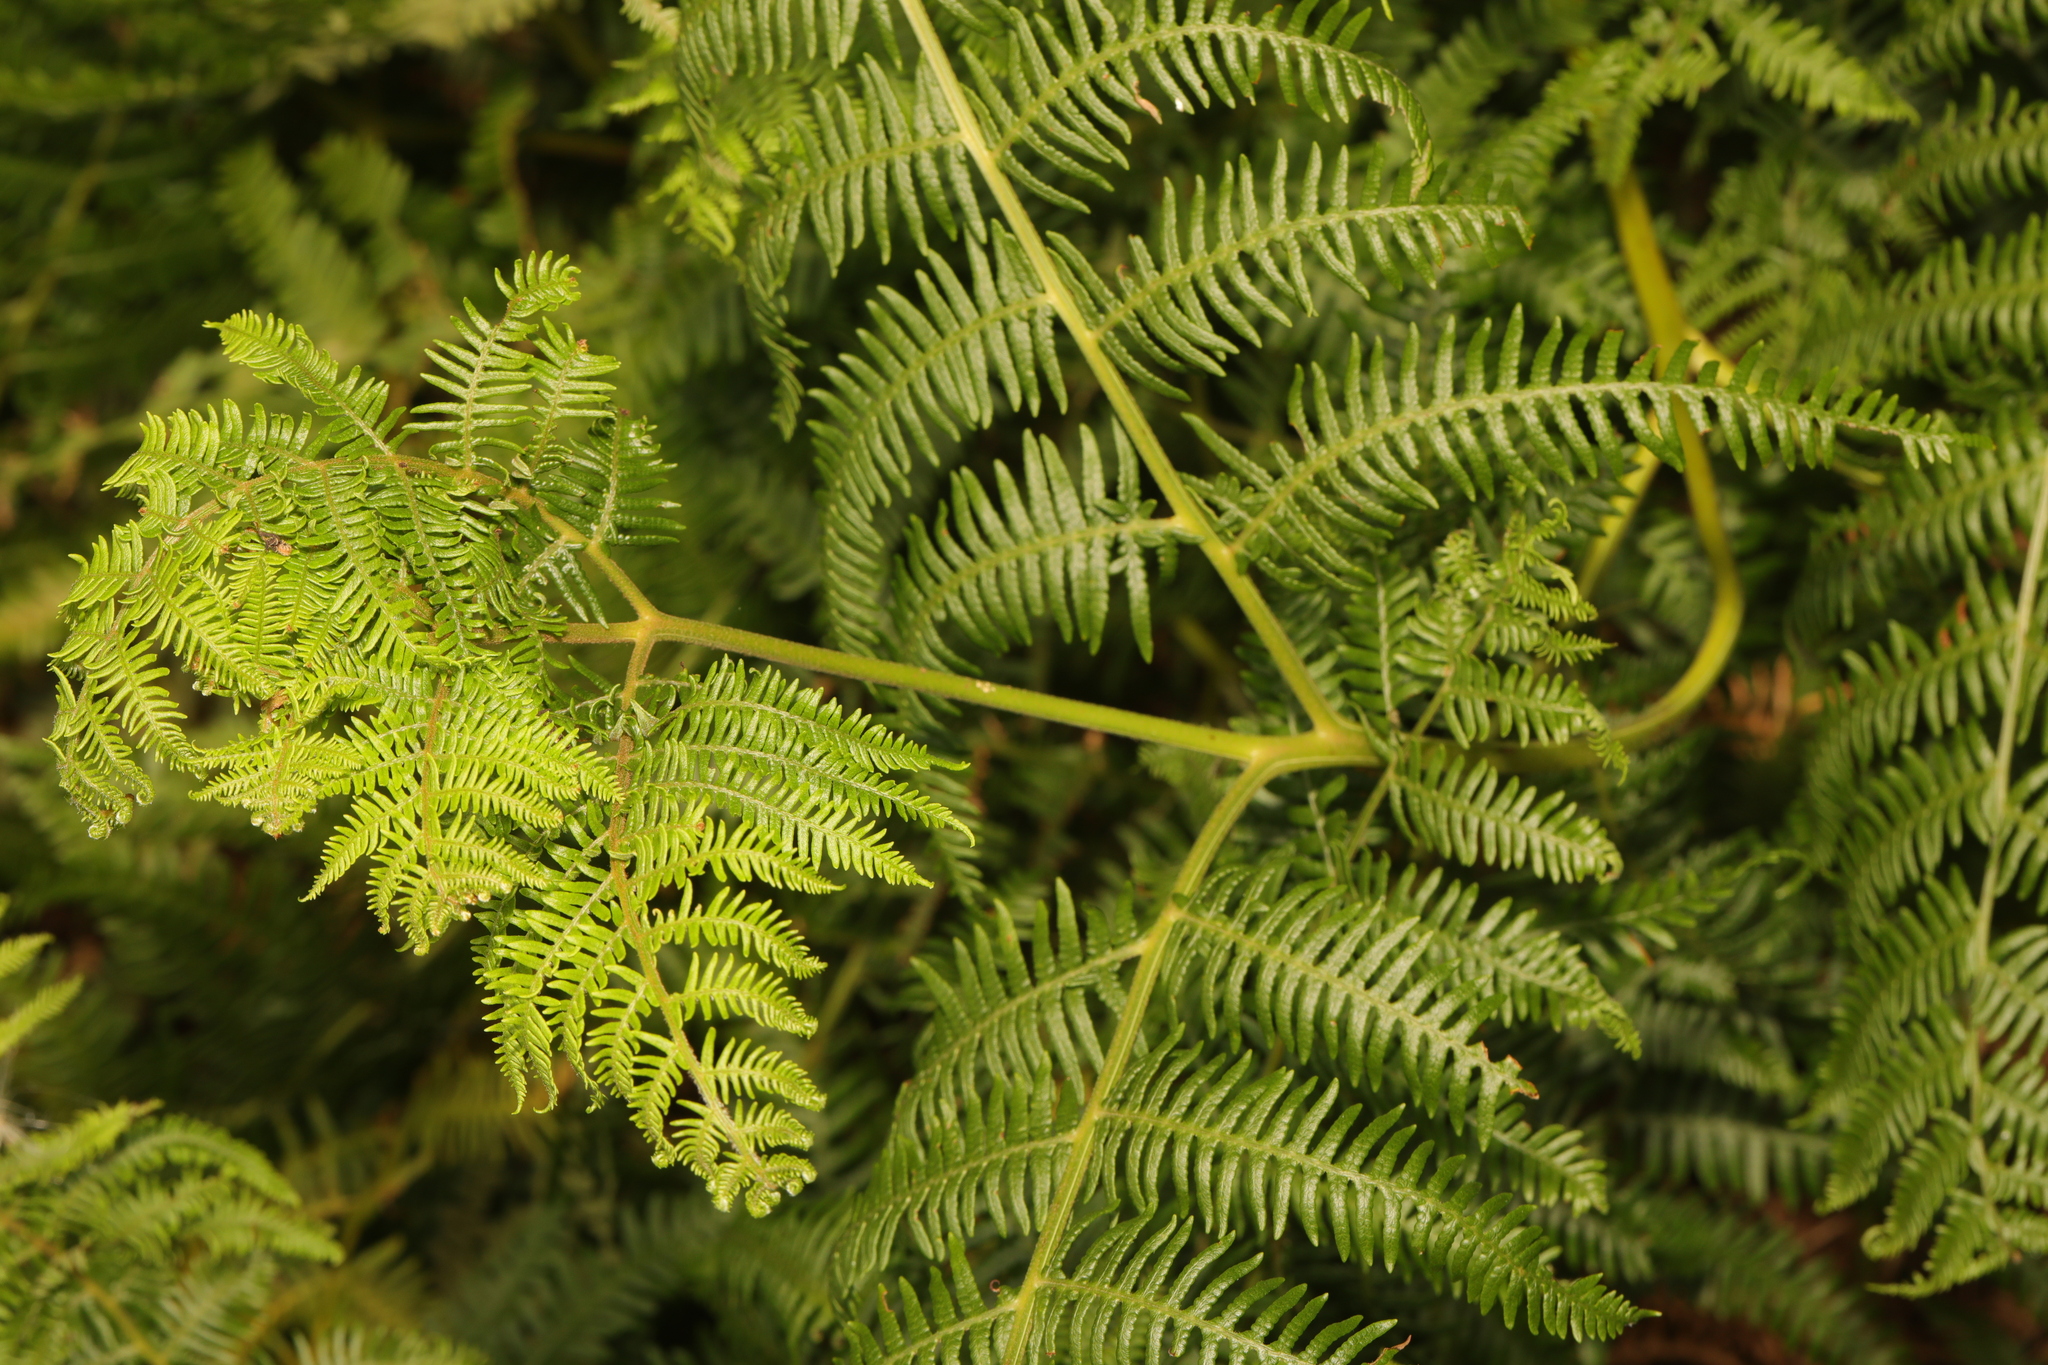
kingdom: Plantae
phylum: Tracheophyta
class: Polypodiopsida
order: Polypodiales
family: Dennstaedtiaceae
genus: Pteridium
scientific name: Pteridium aquilinum
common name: Bracken
